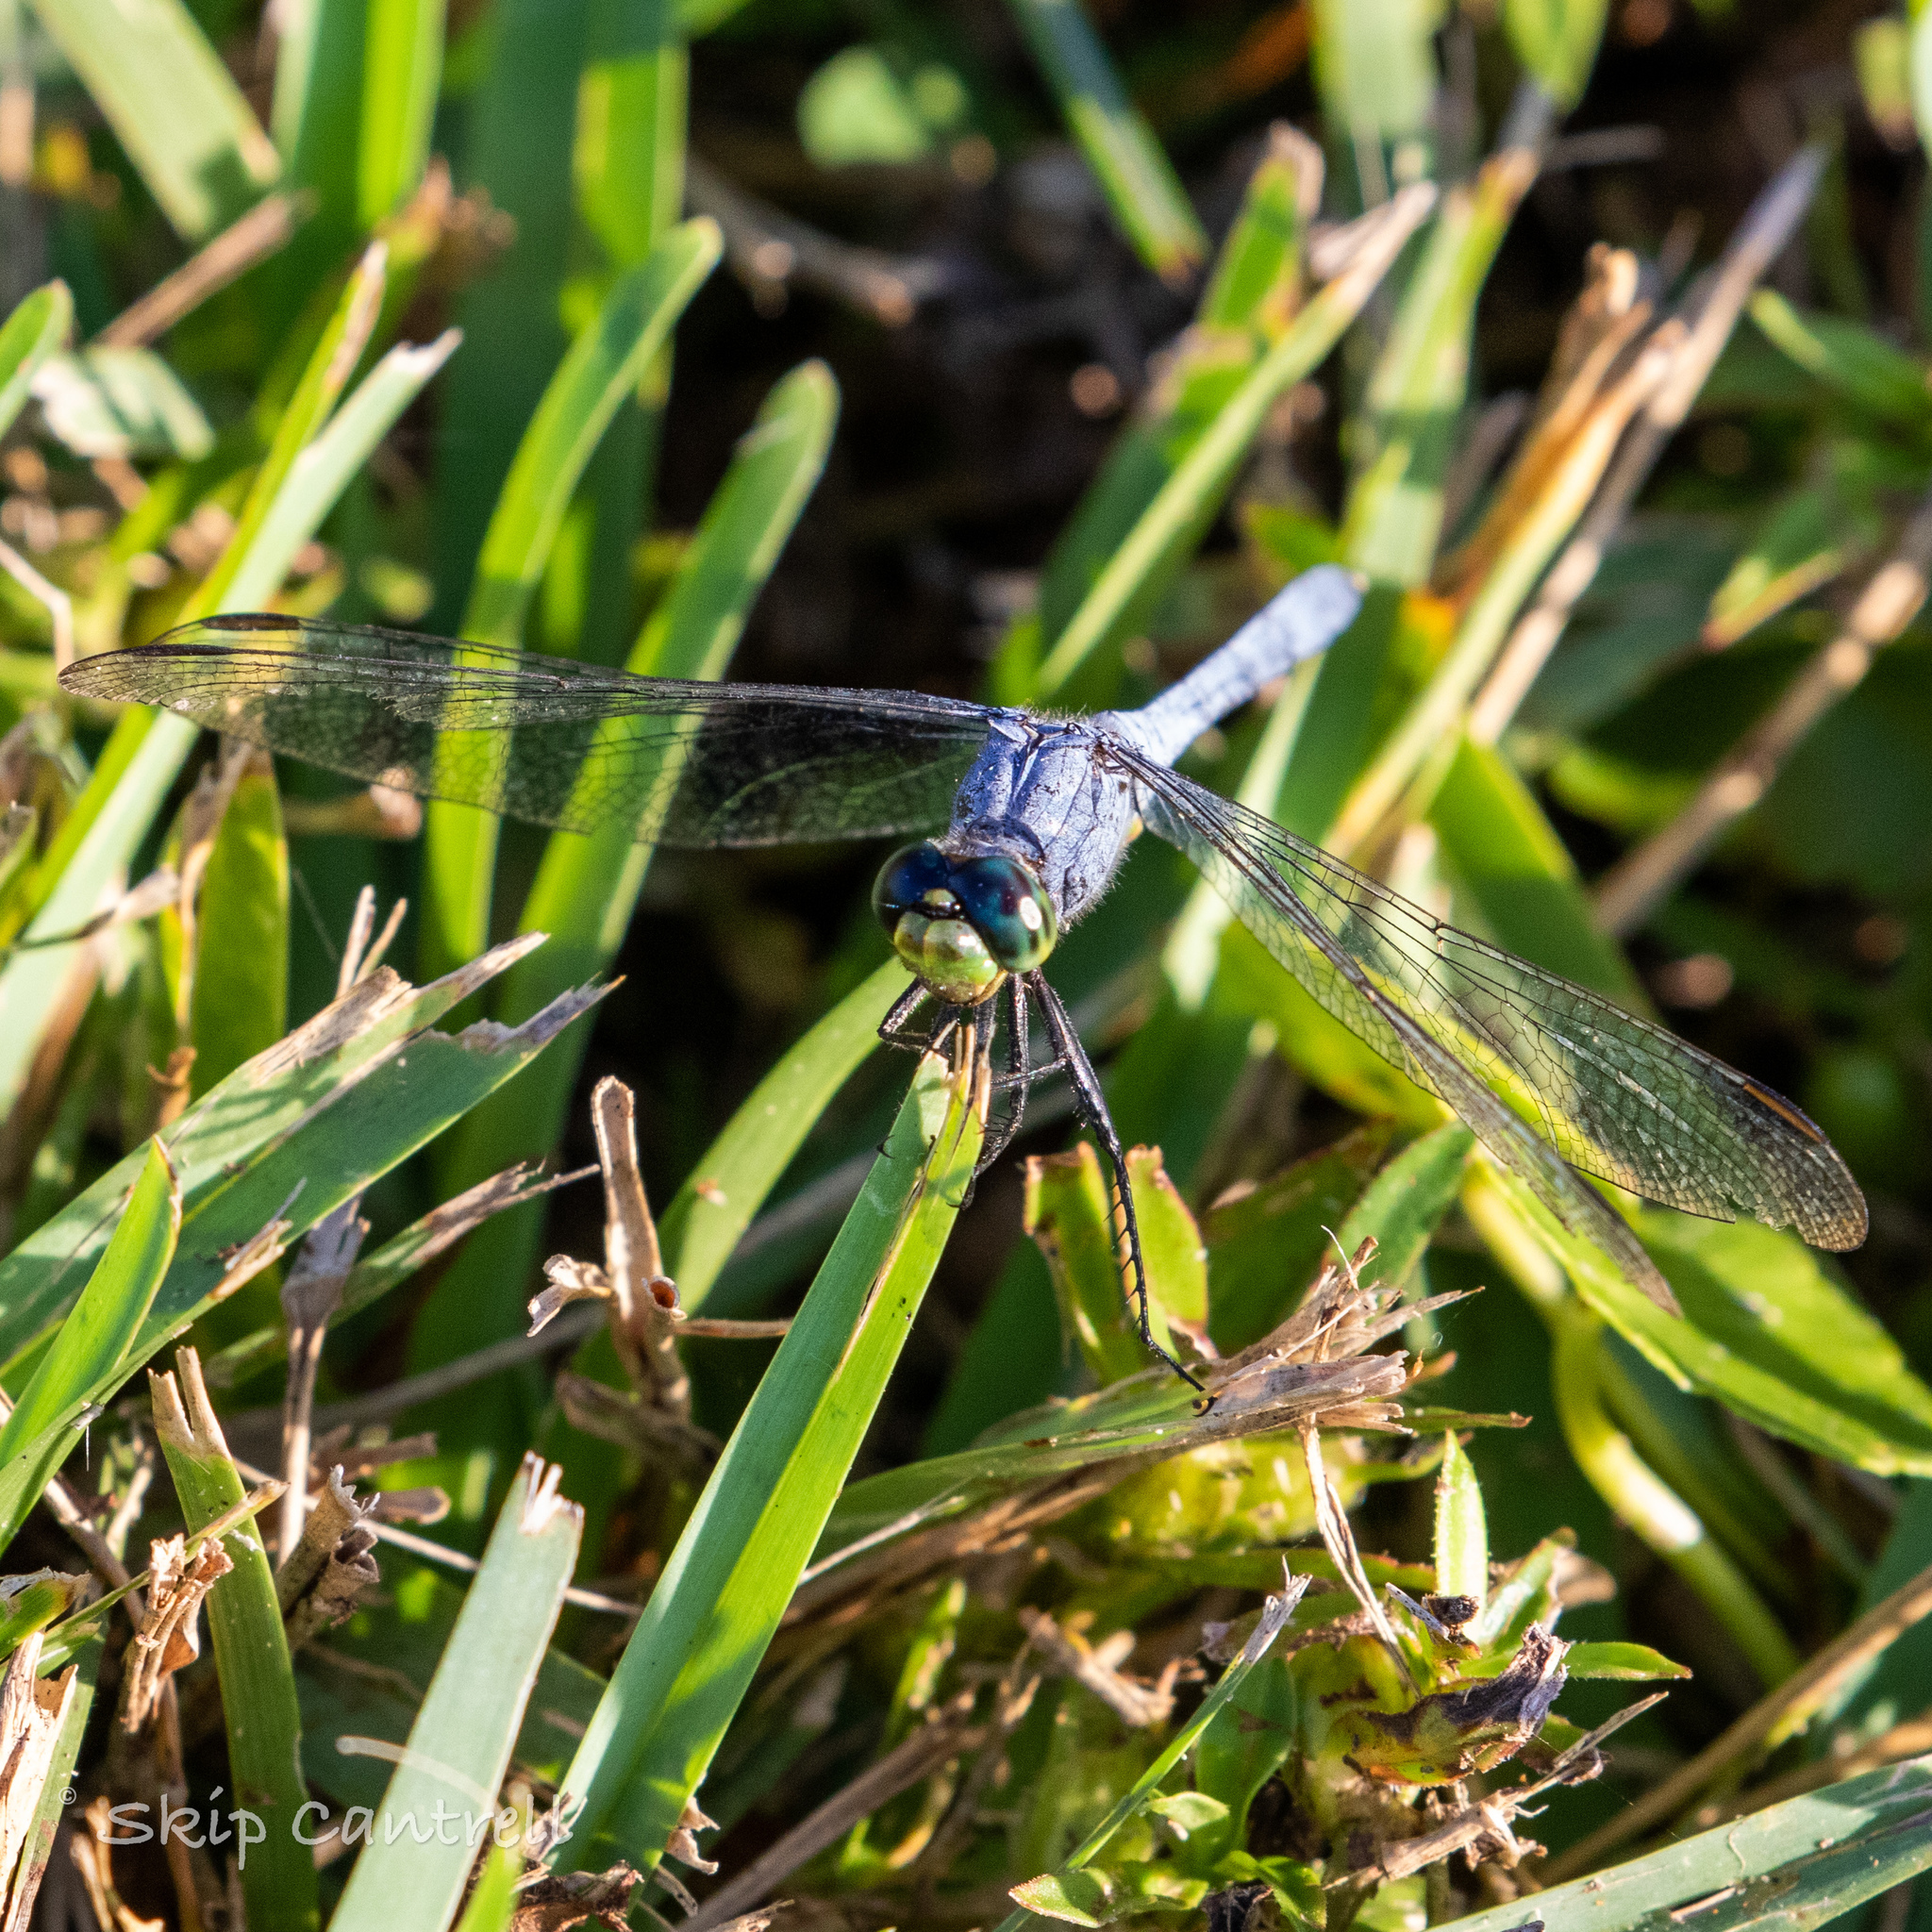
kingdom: Animalia
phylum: Arthropoda
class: Insecta
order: Odonata
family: Libellulidae
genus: Erythemis
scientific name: Erythemis simplicicollis
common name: Eastern pondhawk
